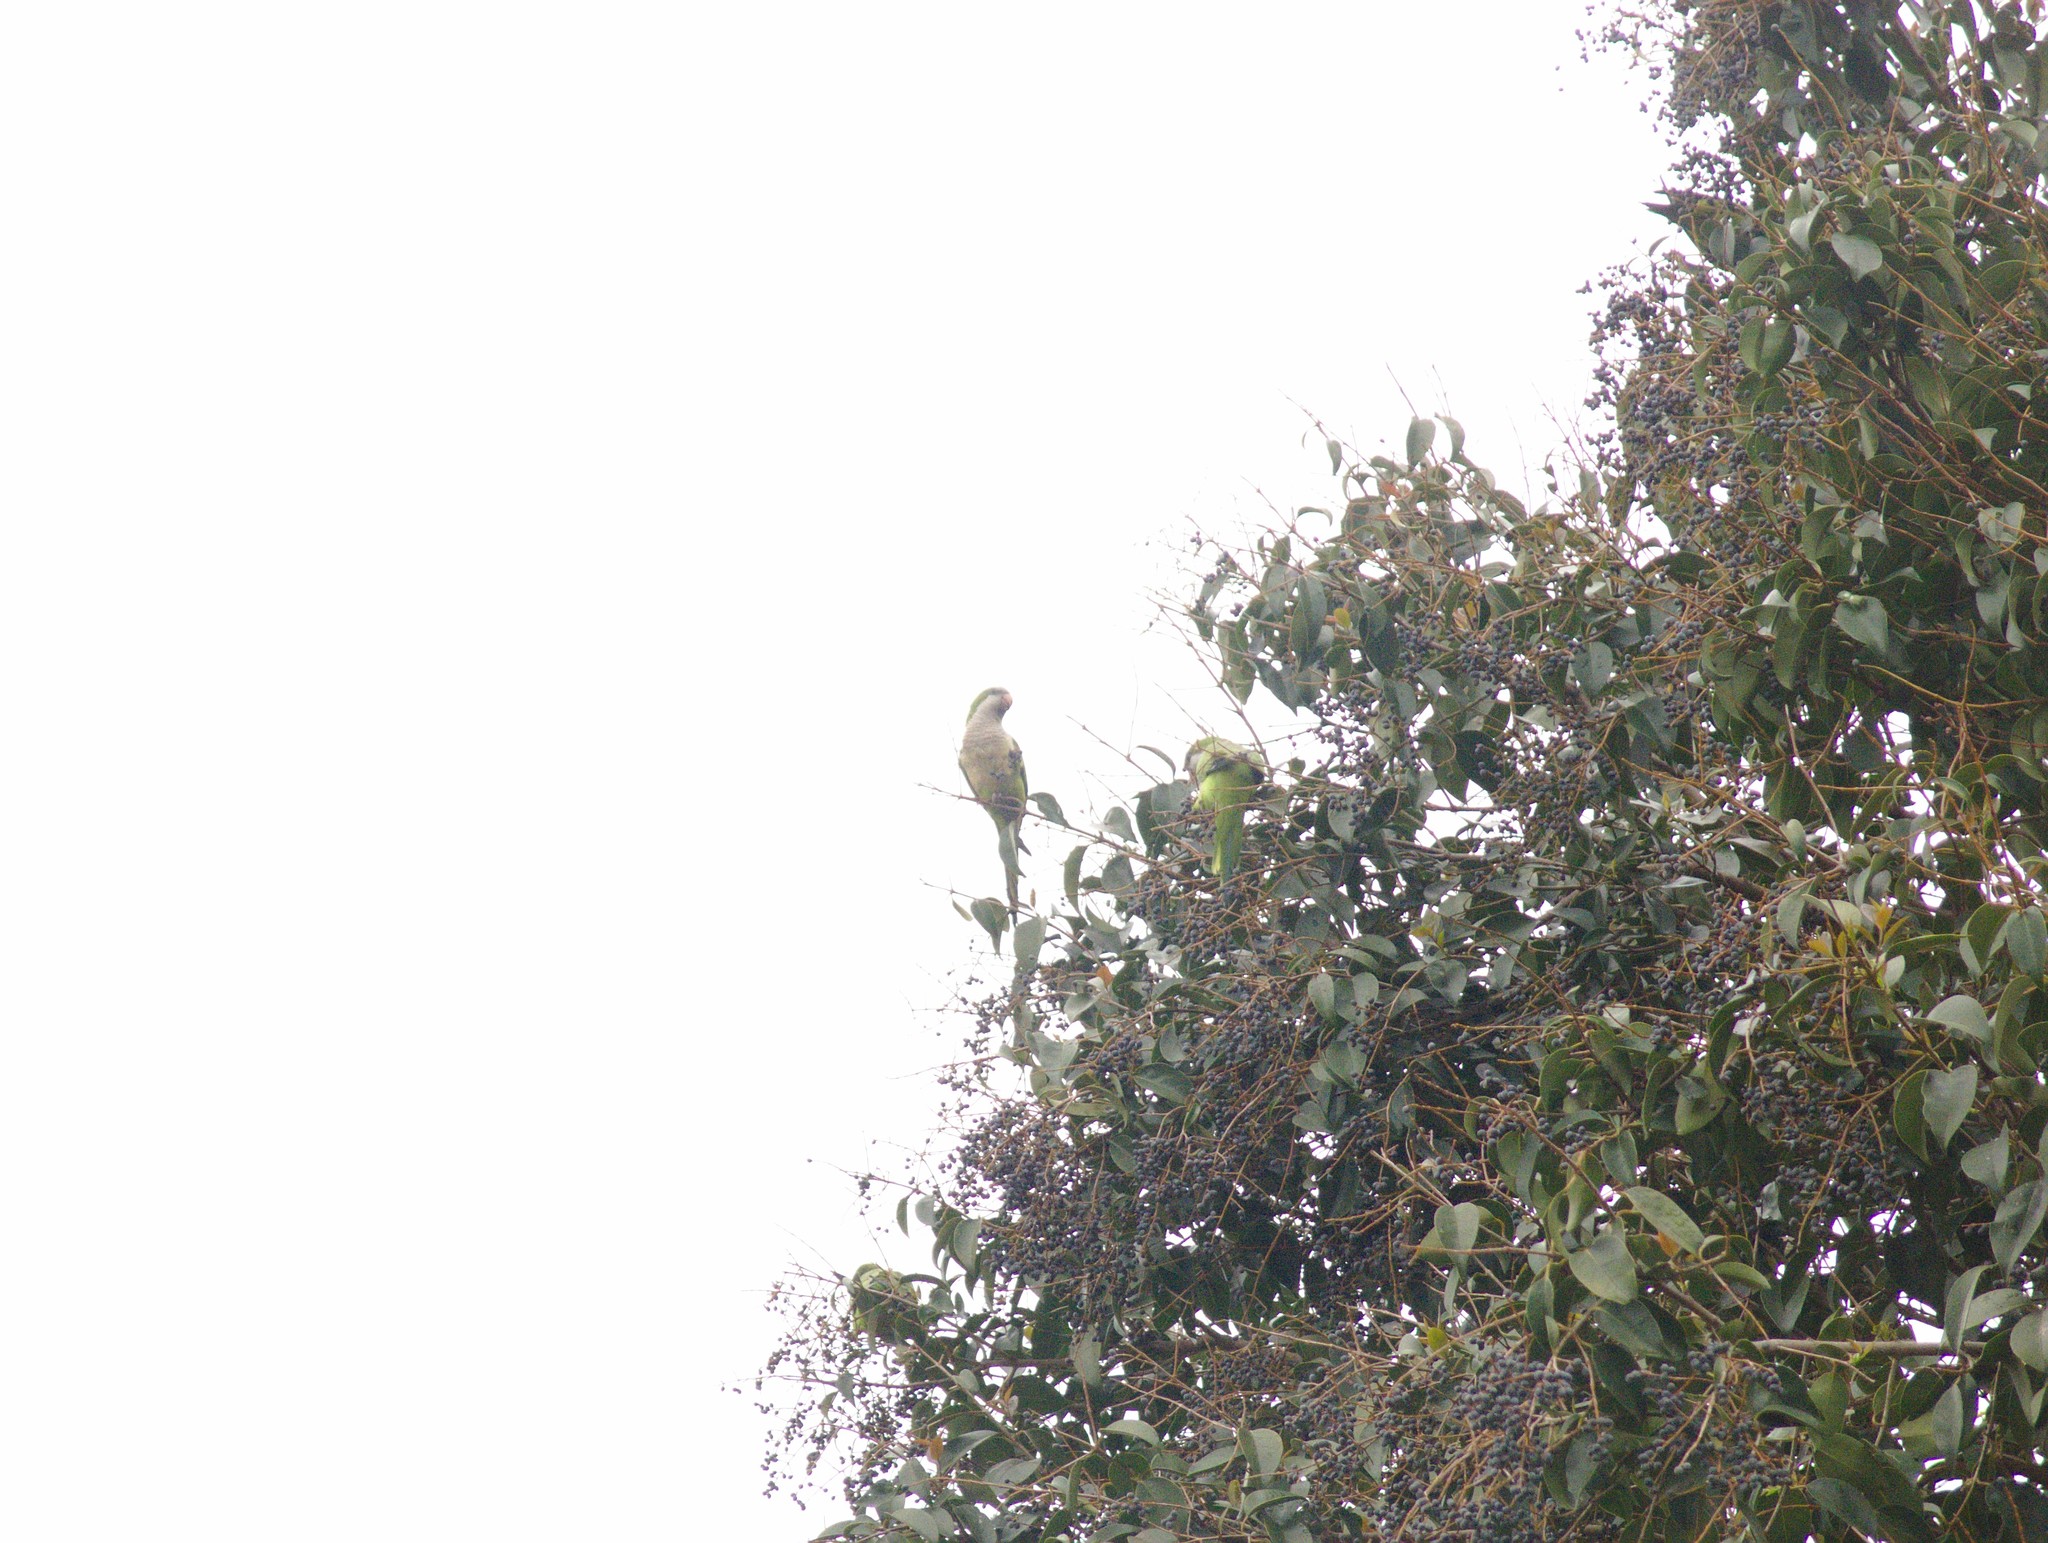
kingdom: Animalia
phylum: Chordata
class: Aves
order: Psittaciformes
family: Psittacidae
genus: Myiopsitta
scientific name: Myiopsitta monachus
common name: Monk parakeet
